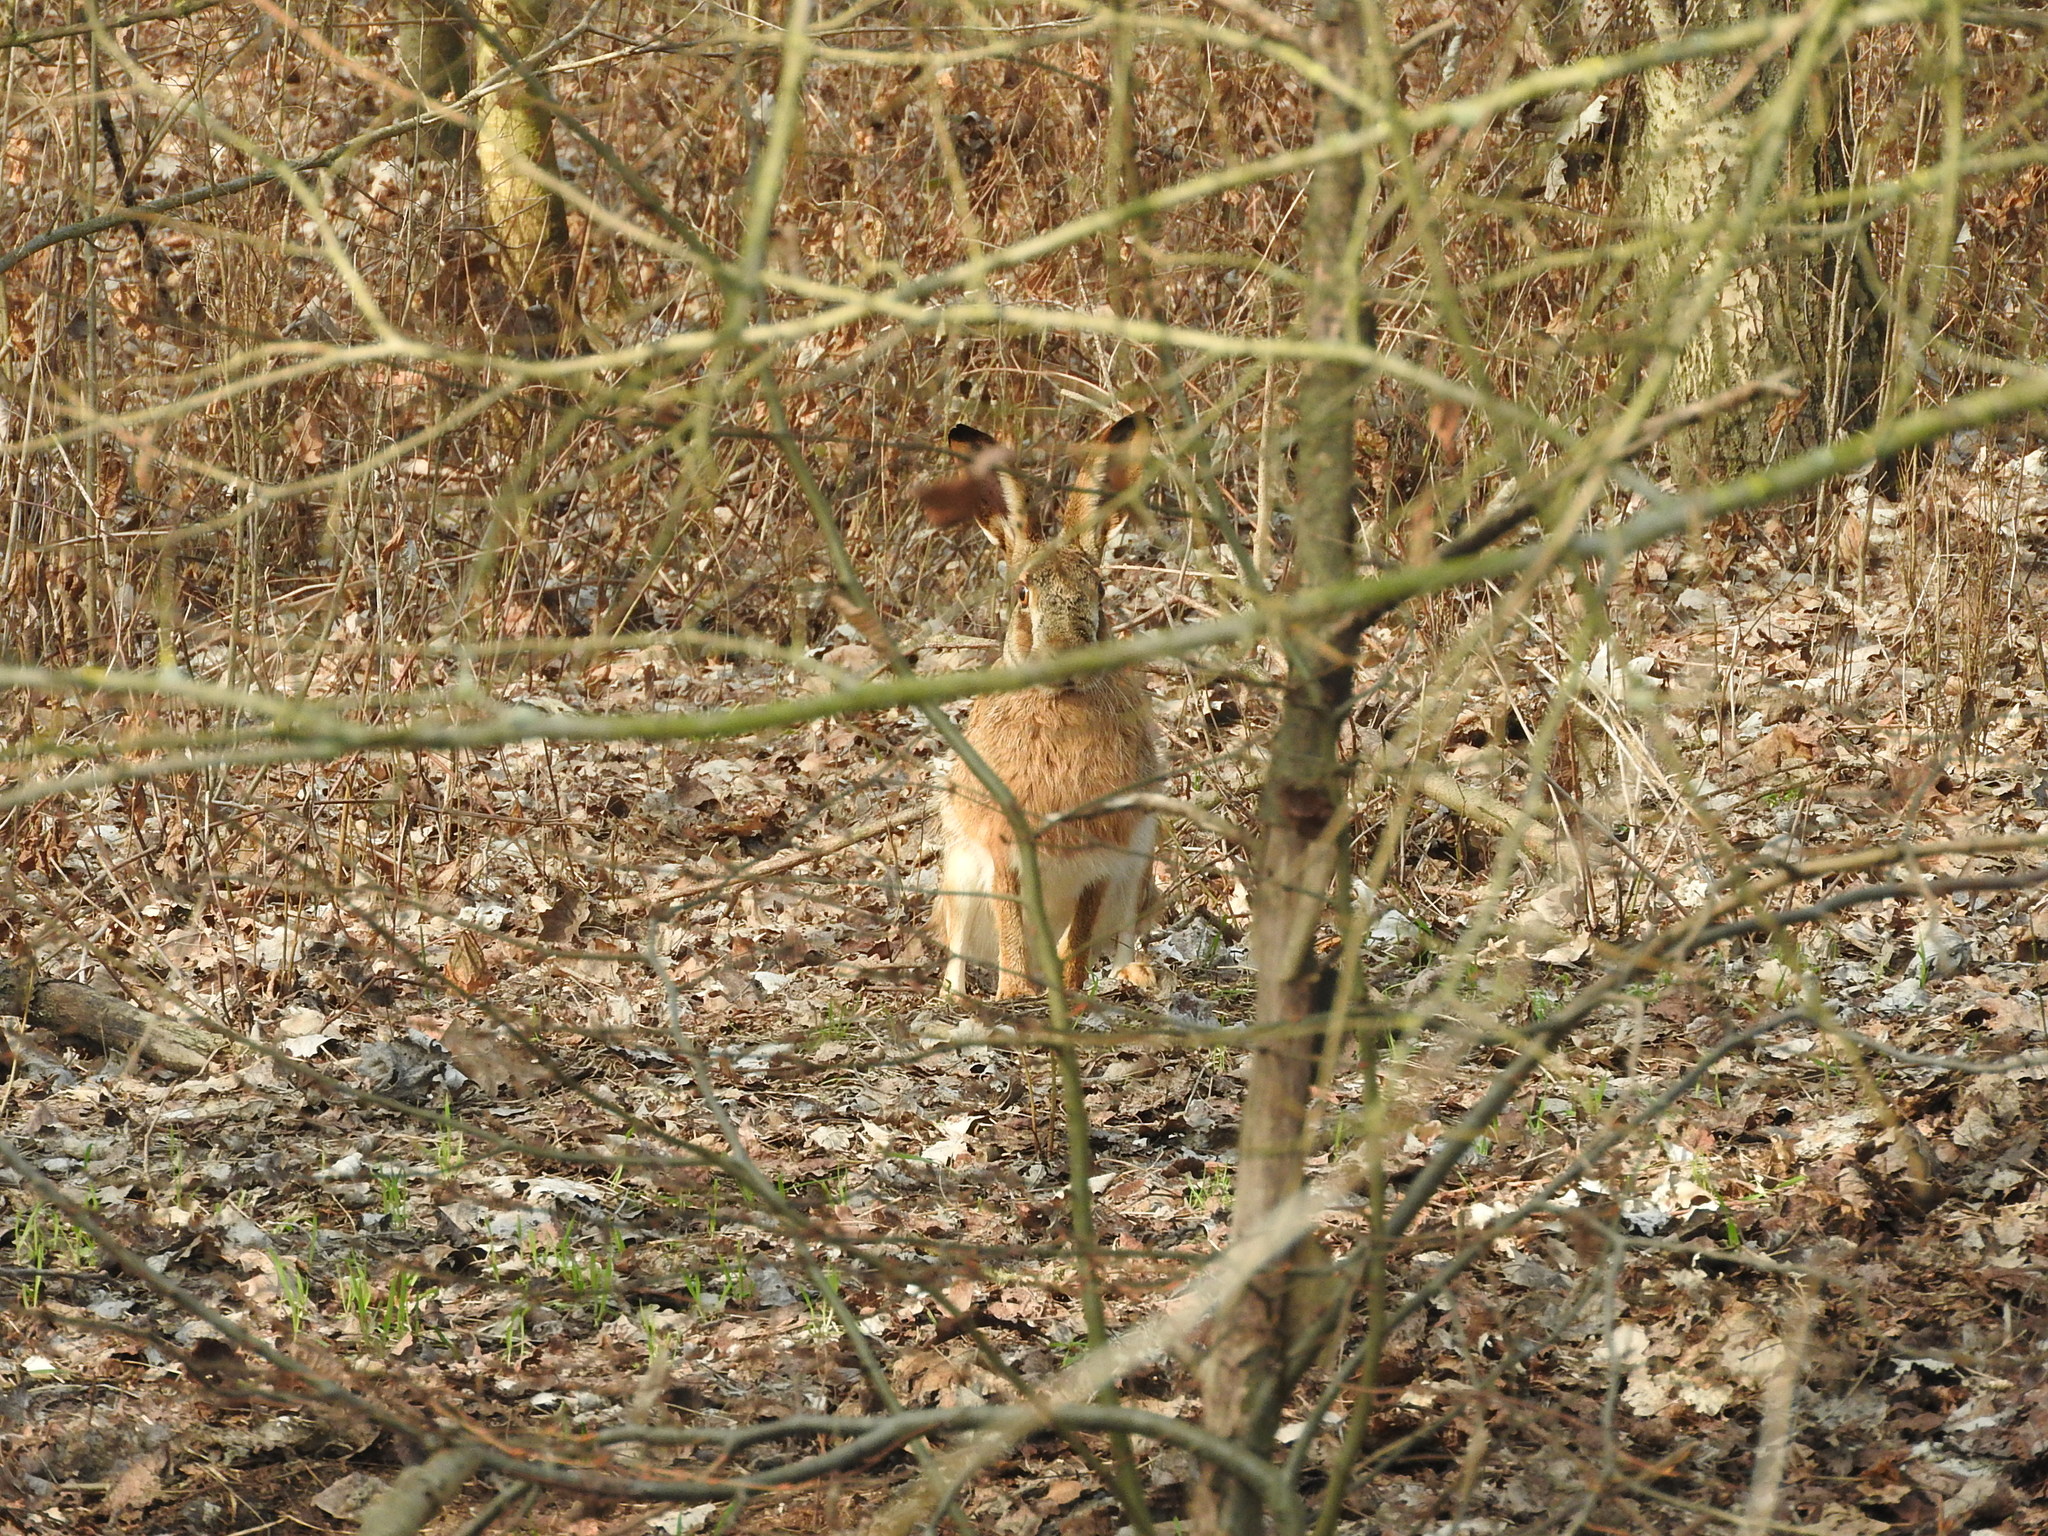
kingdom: Animalia
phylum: Chordata
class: Mammalia
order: Lagomorpha
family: Leporidae
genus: Lepus
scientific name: Lepus europaeus
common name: European hare
